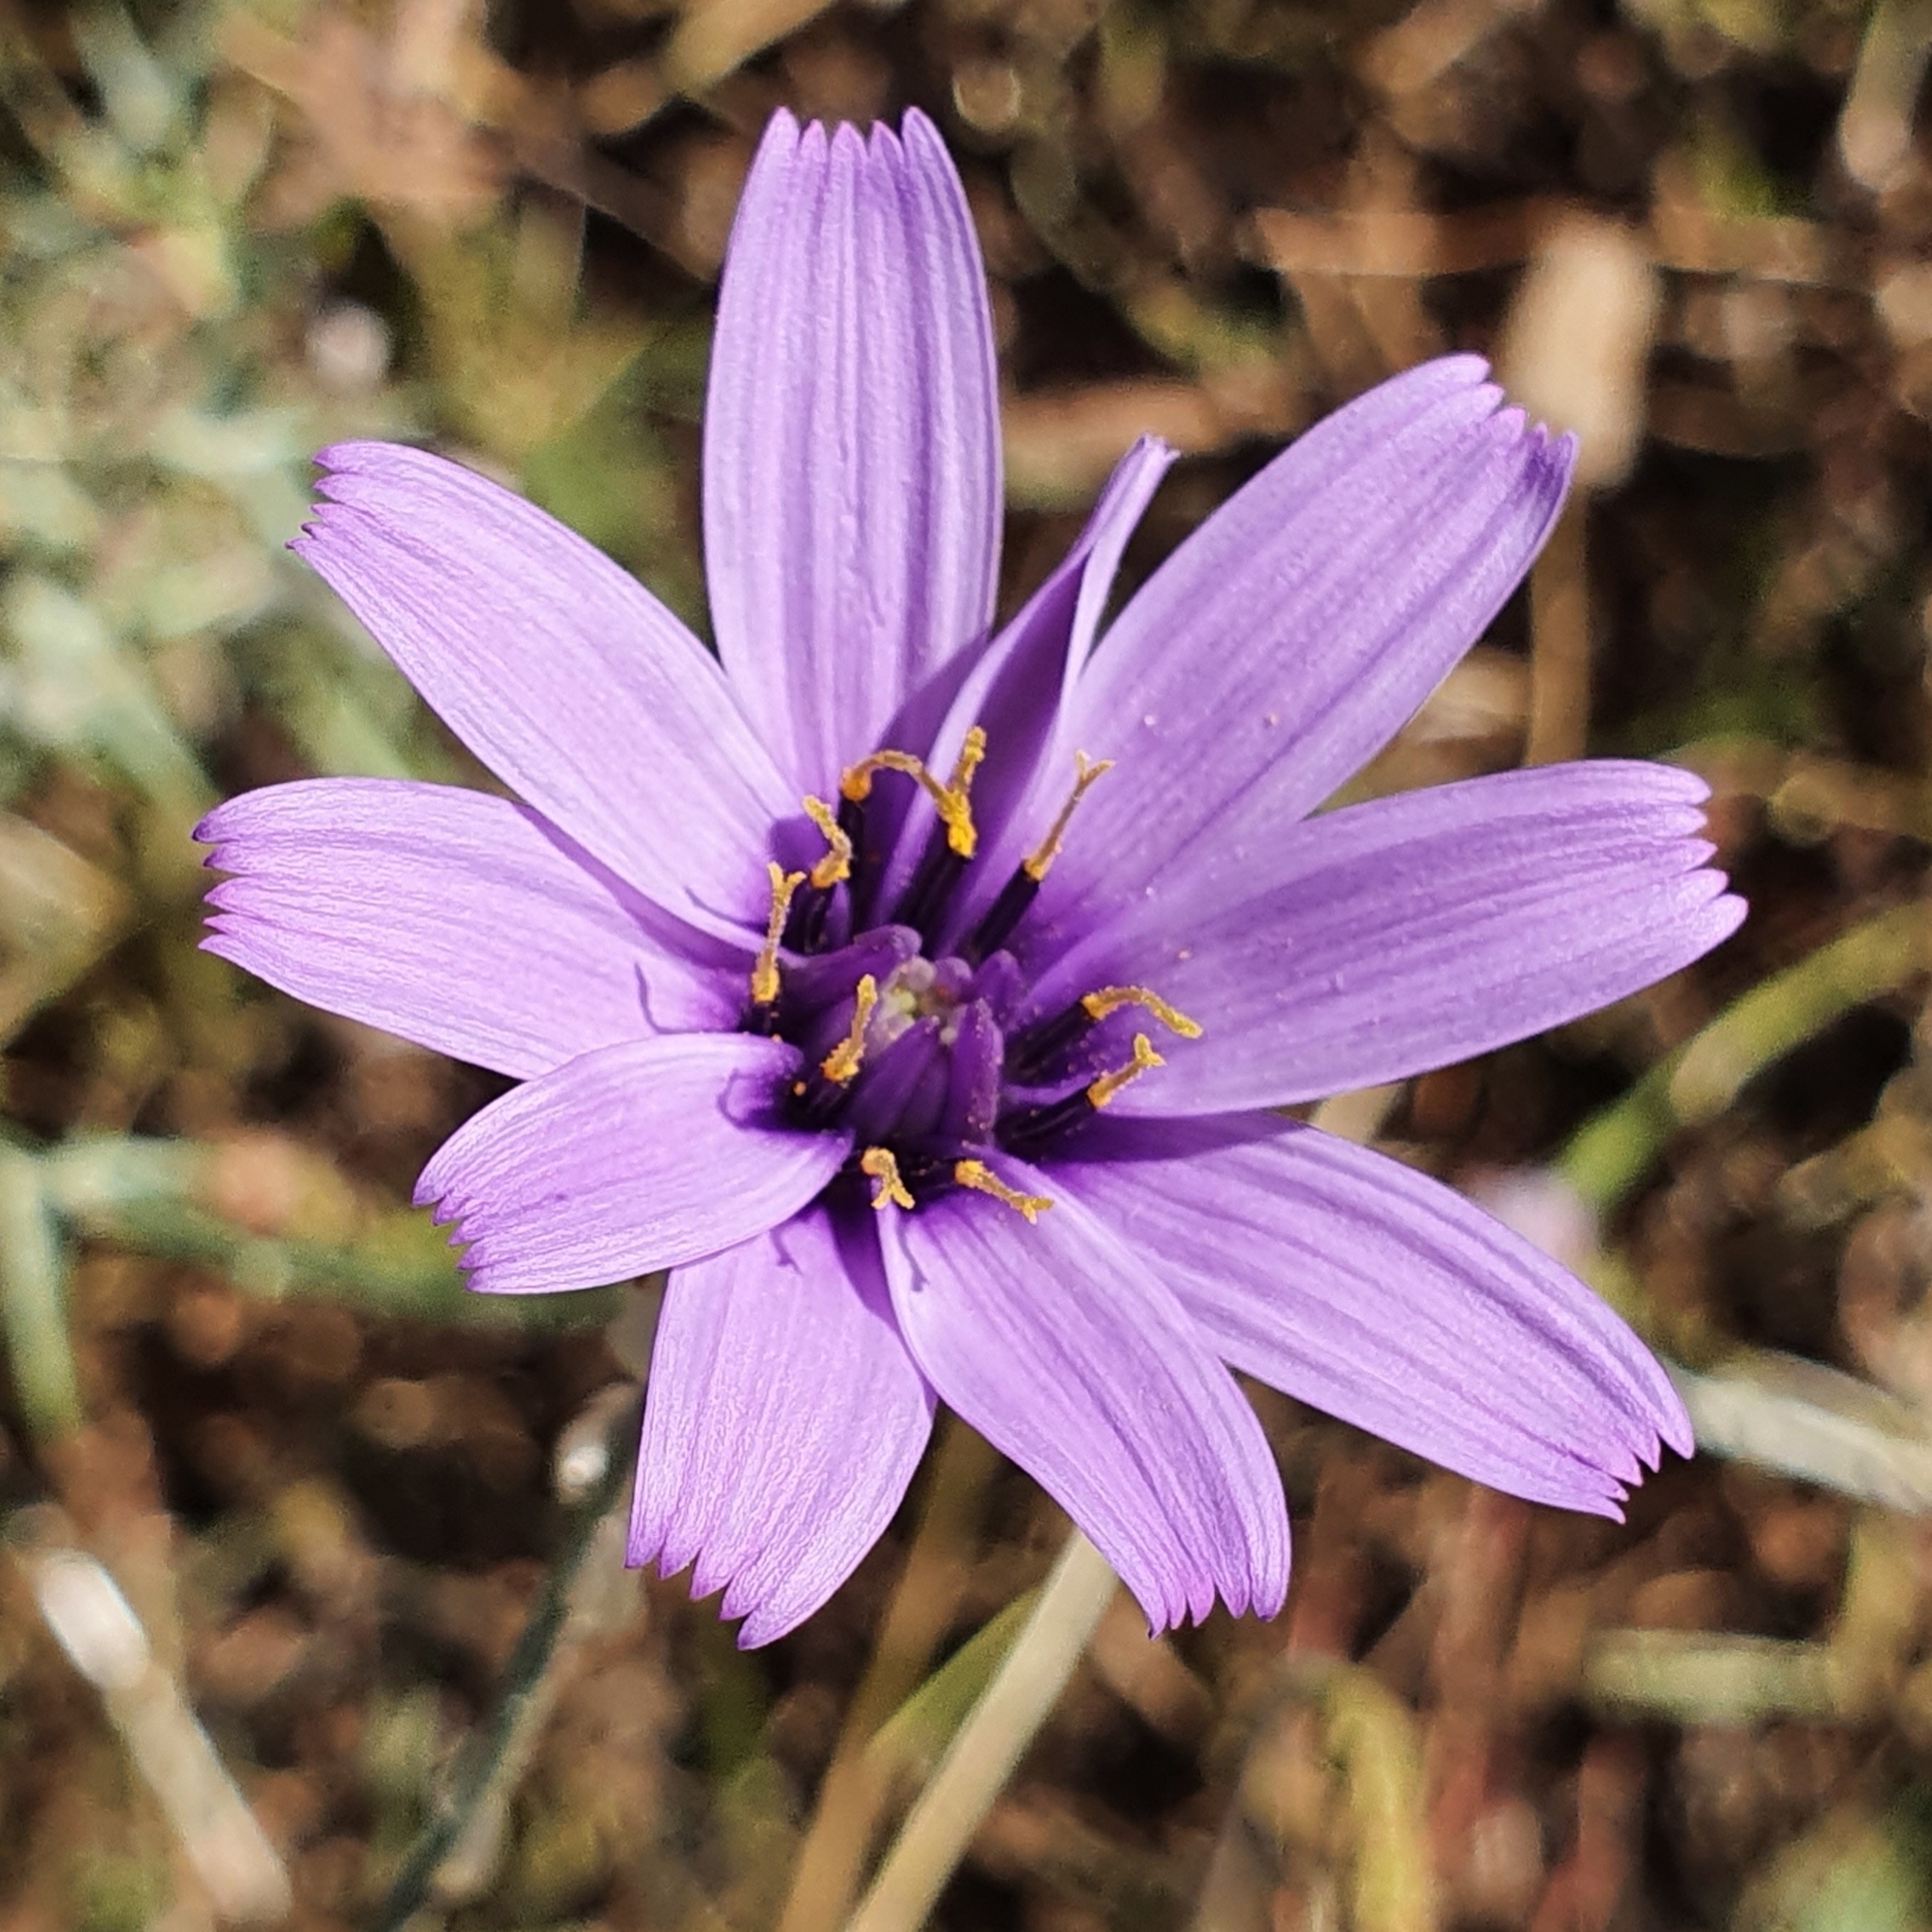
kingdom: Plantae
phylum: Tracheophyta
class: Magnoliopsida
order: Asterales
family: Asteraceae
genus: Catananche
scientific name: Catananche caerulea
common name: Blue cupidone
